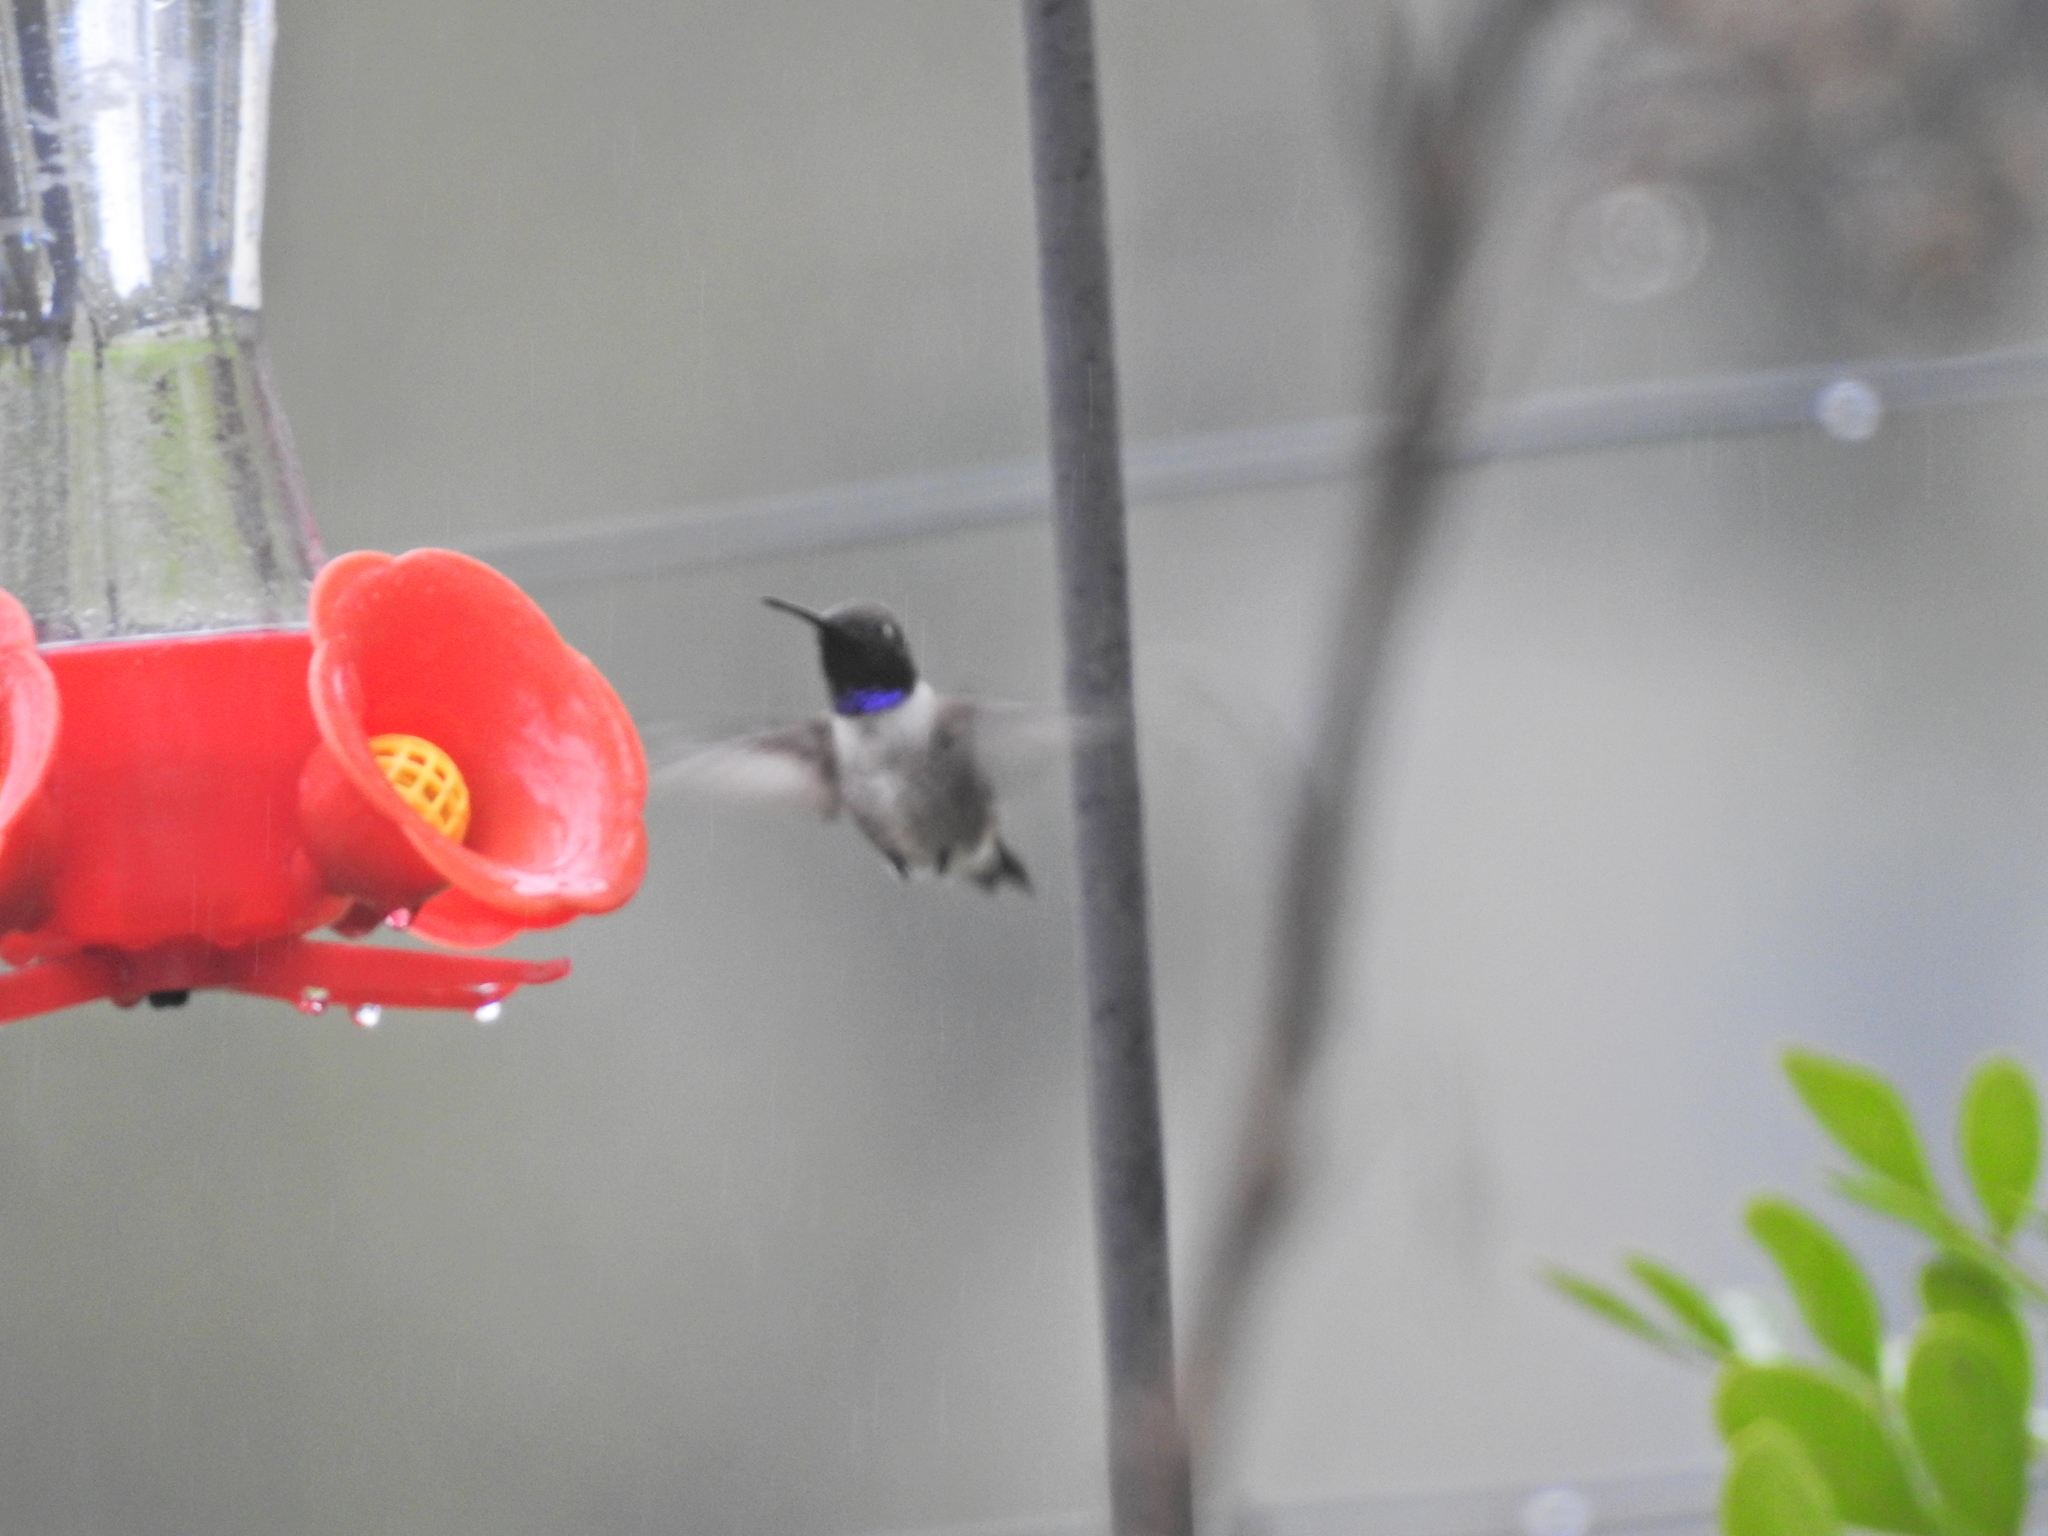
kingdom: Animalia
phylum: Chordata
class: Aves
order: Apodiformes
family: Trochilidae
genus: Archilochus
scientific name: Archilochus alexandri
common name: Black-chinned hummingbird
